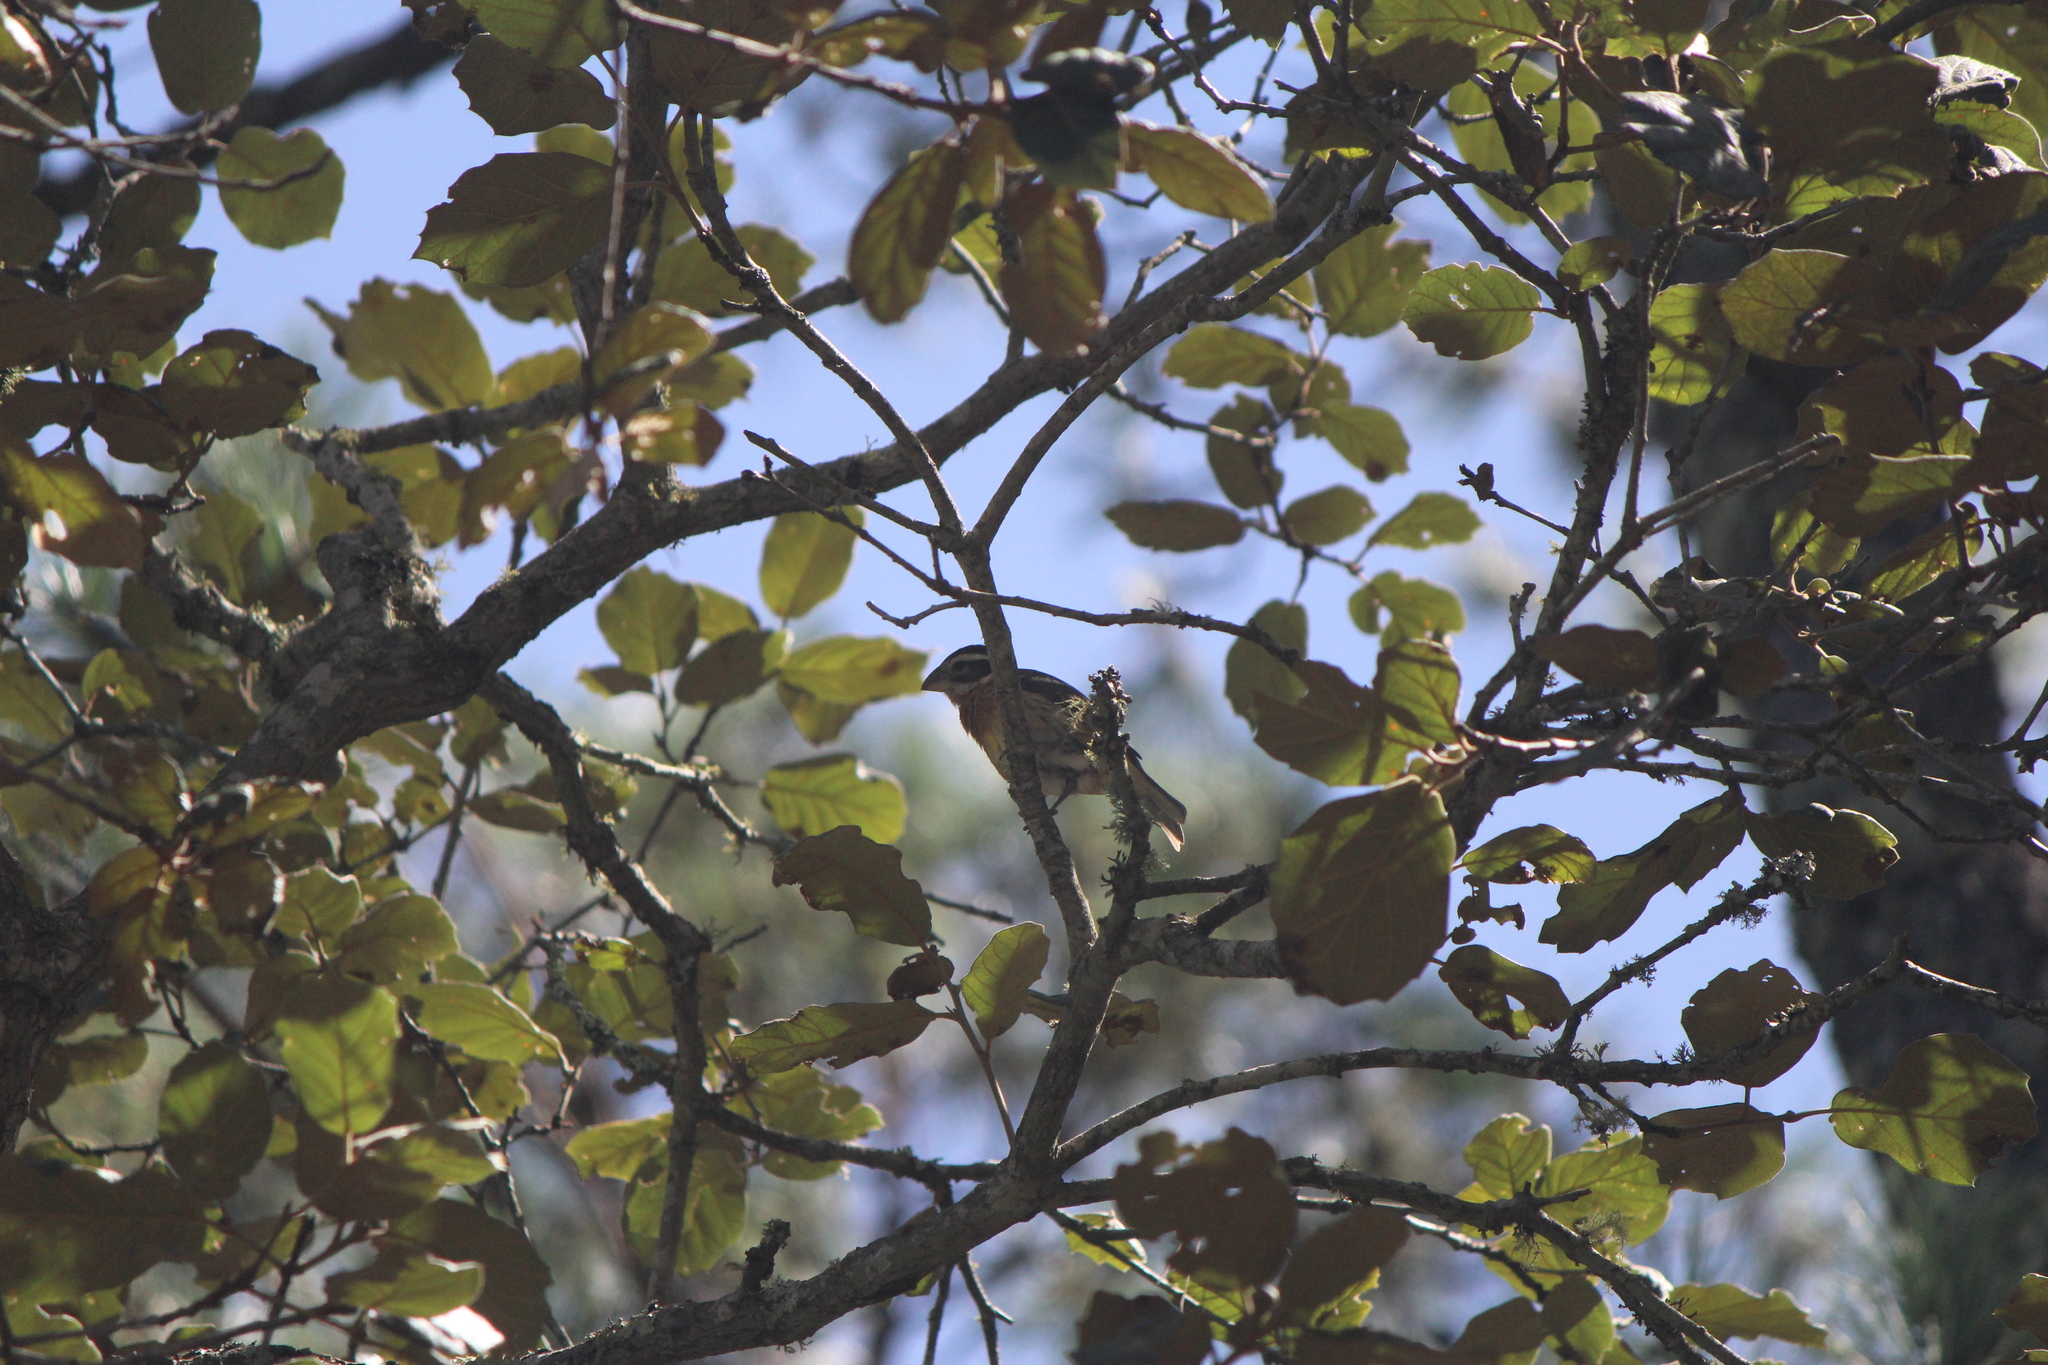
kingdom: Animalia
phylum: Chordata
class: Aves
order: Passeriformes
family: Cardinalidae
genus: Pheucticus
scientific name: Pheucticus melanocephalus
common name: Black-headed grosbeak
